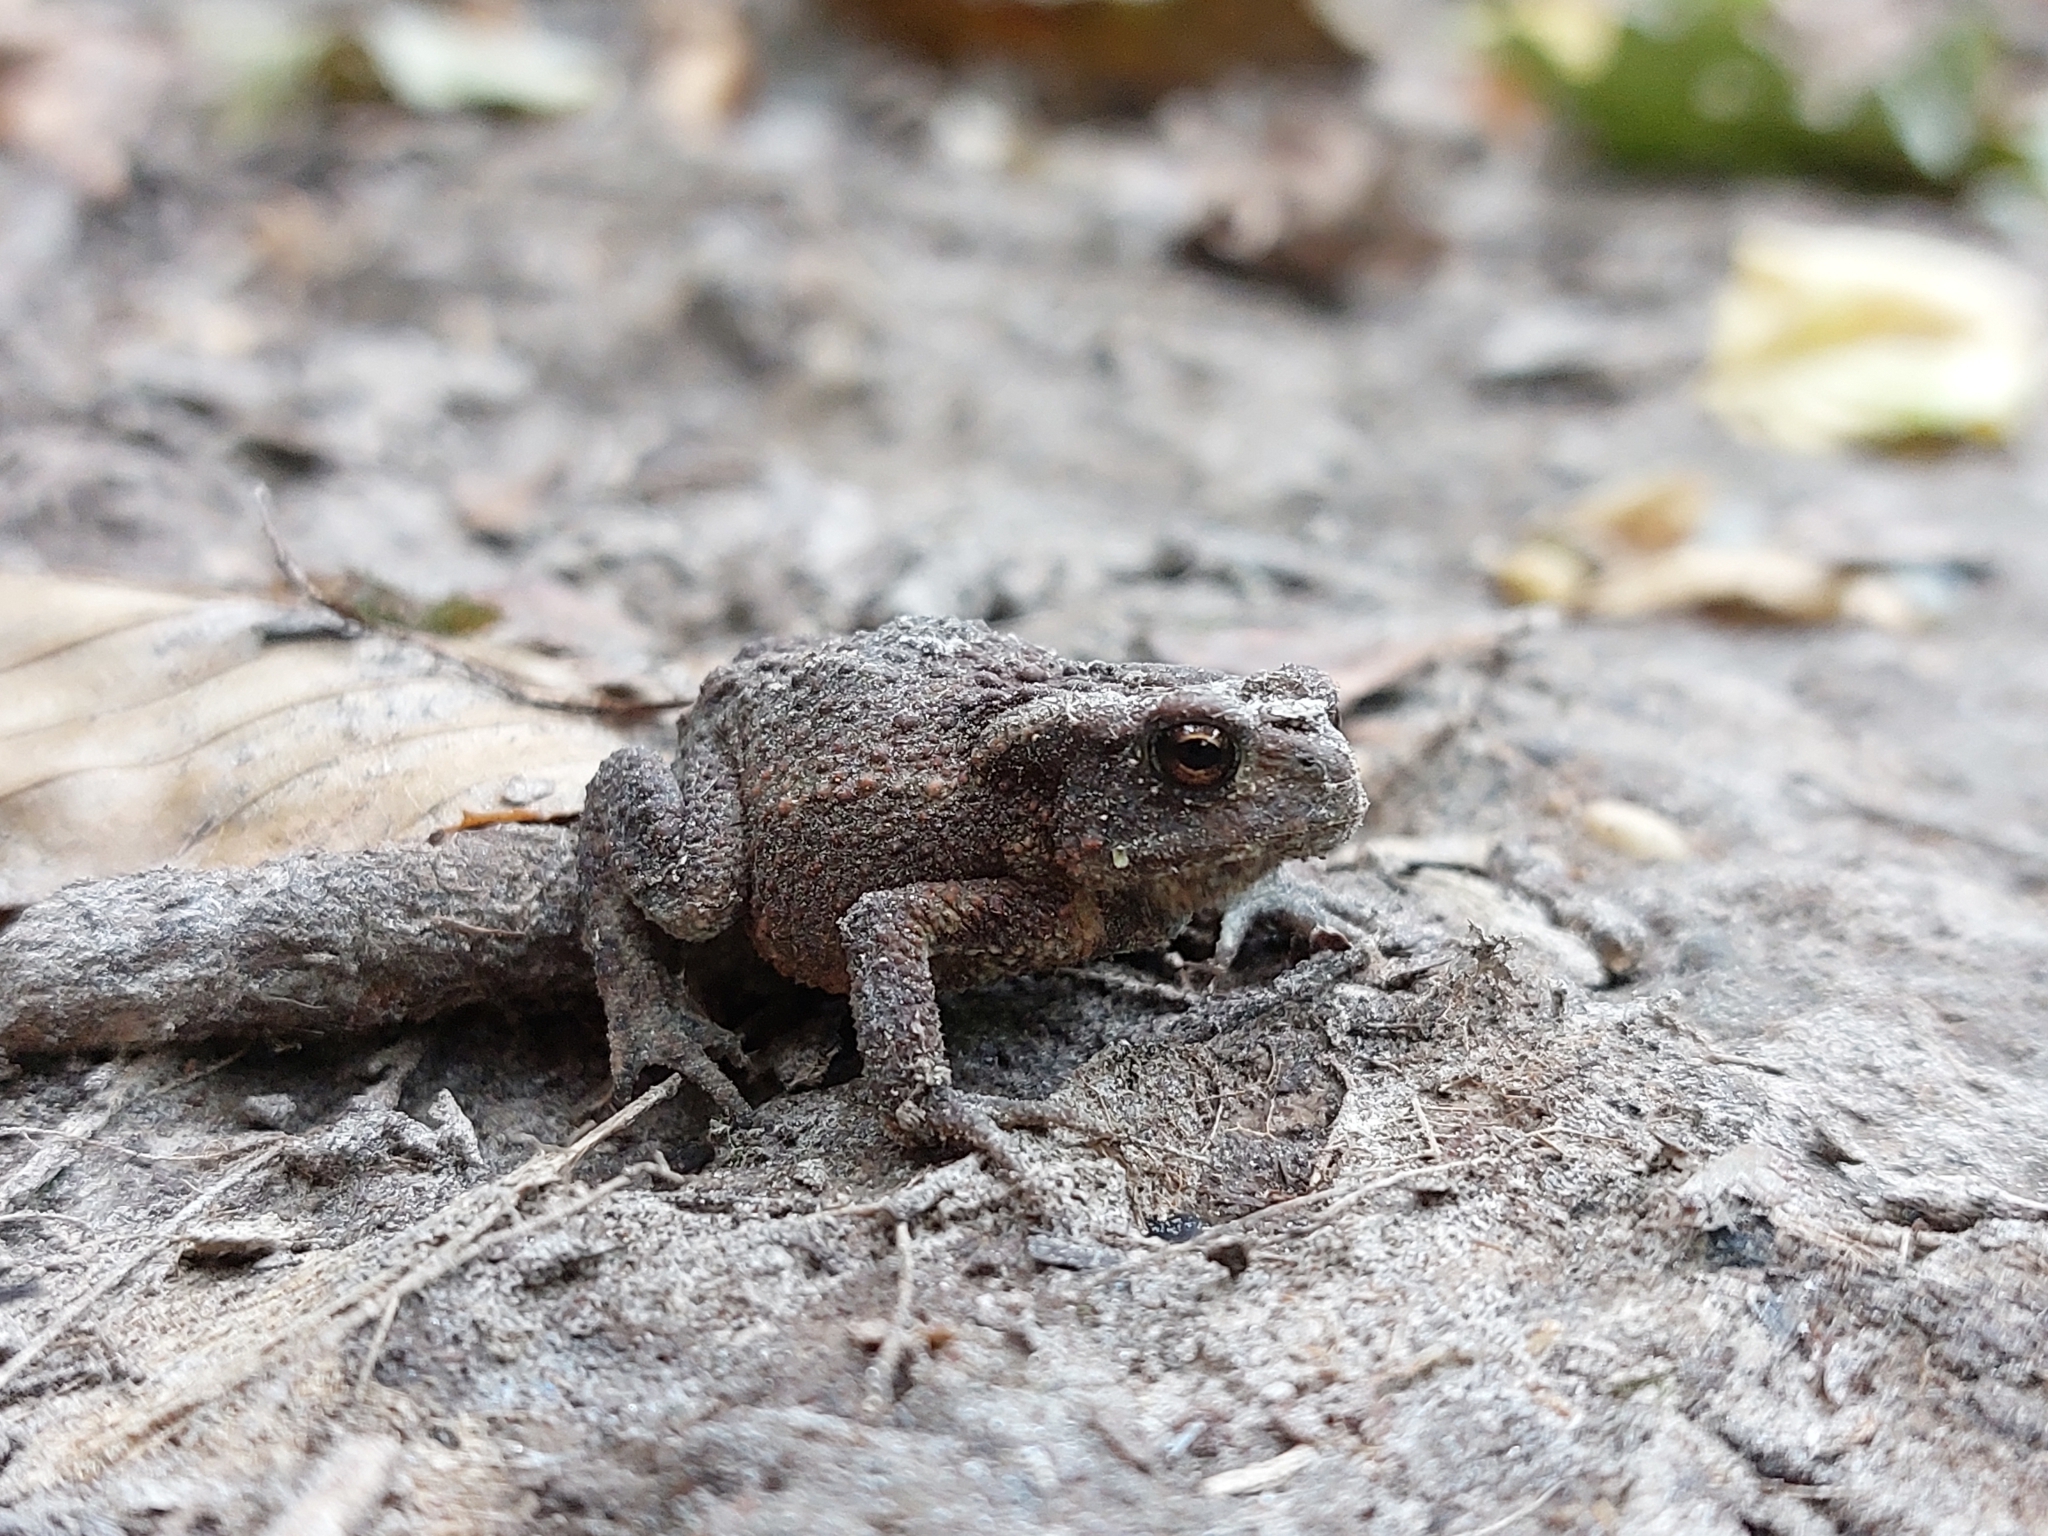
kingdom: Animalia
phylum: Chordata
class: Amphibia
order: Anura
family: Bufonidae
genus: Bufo
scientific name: Bufo bufo
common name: Common toad
